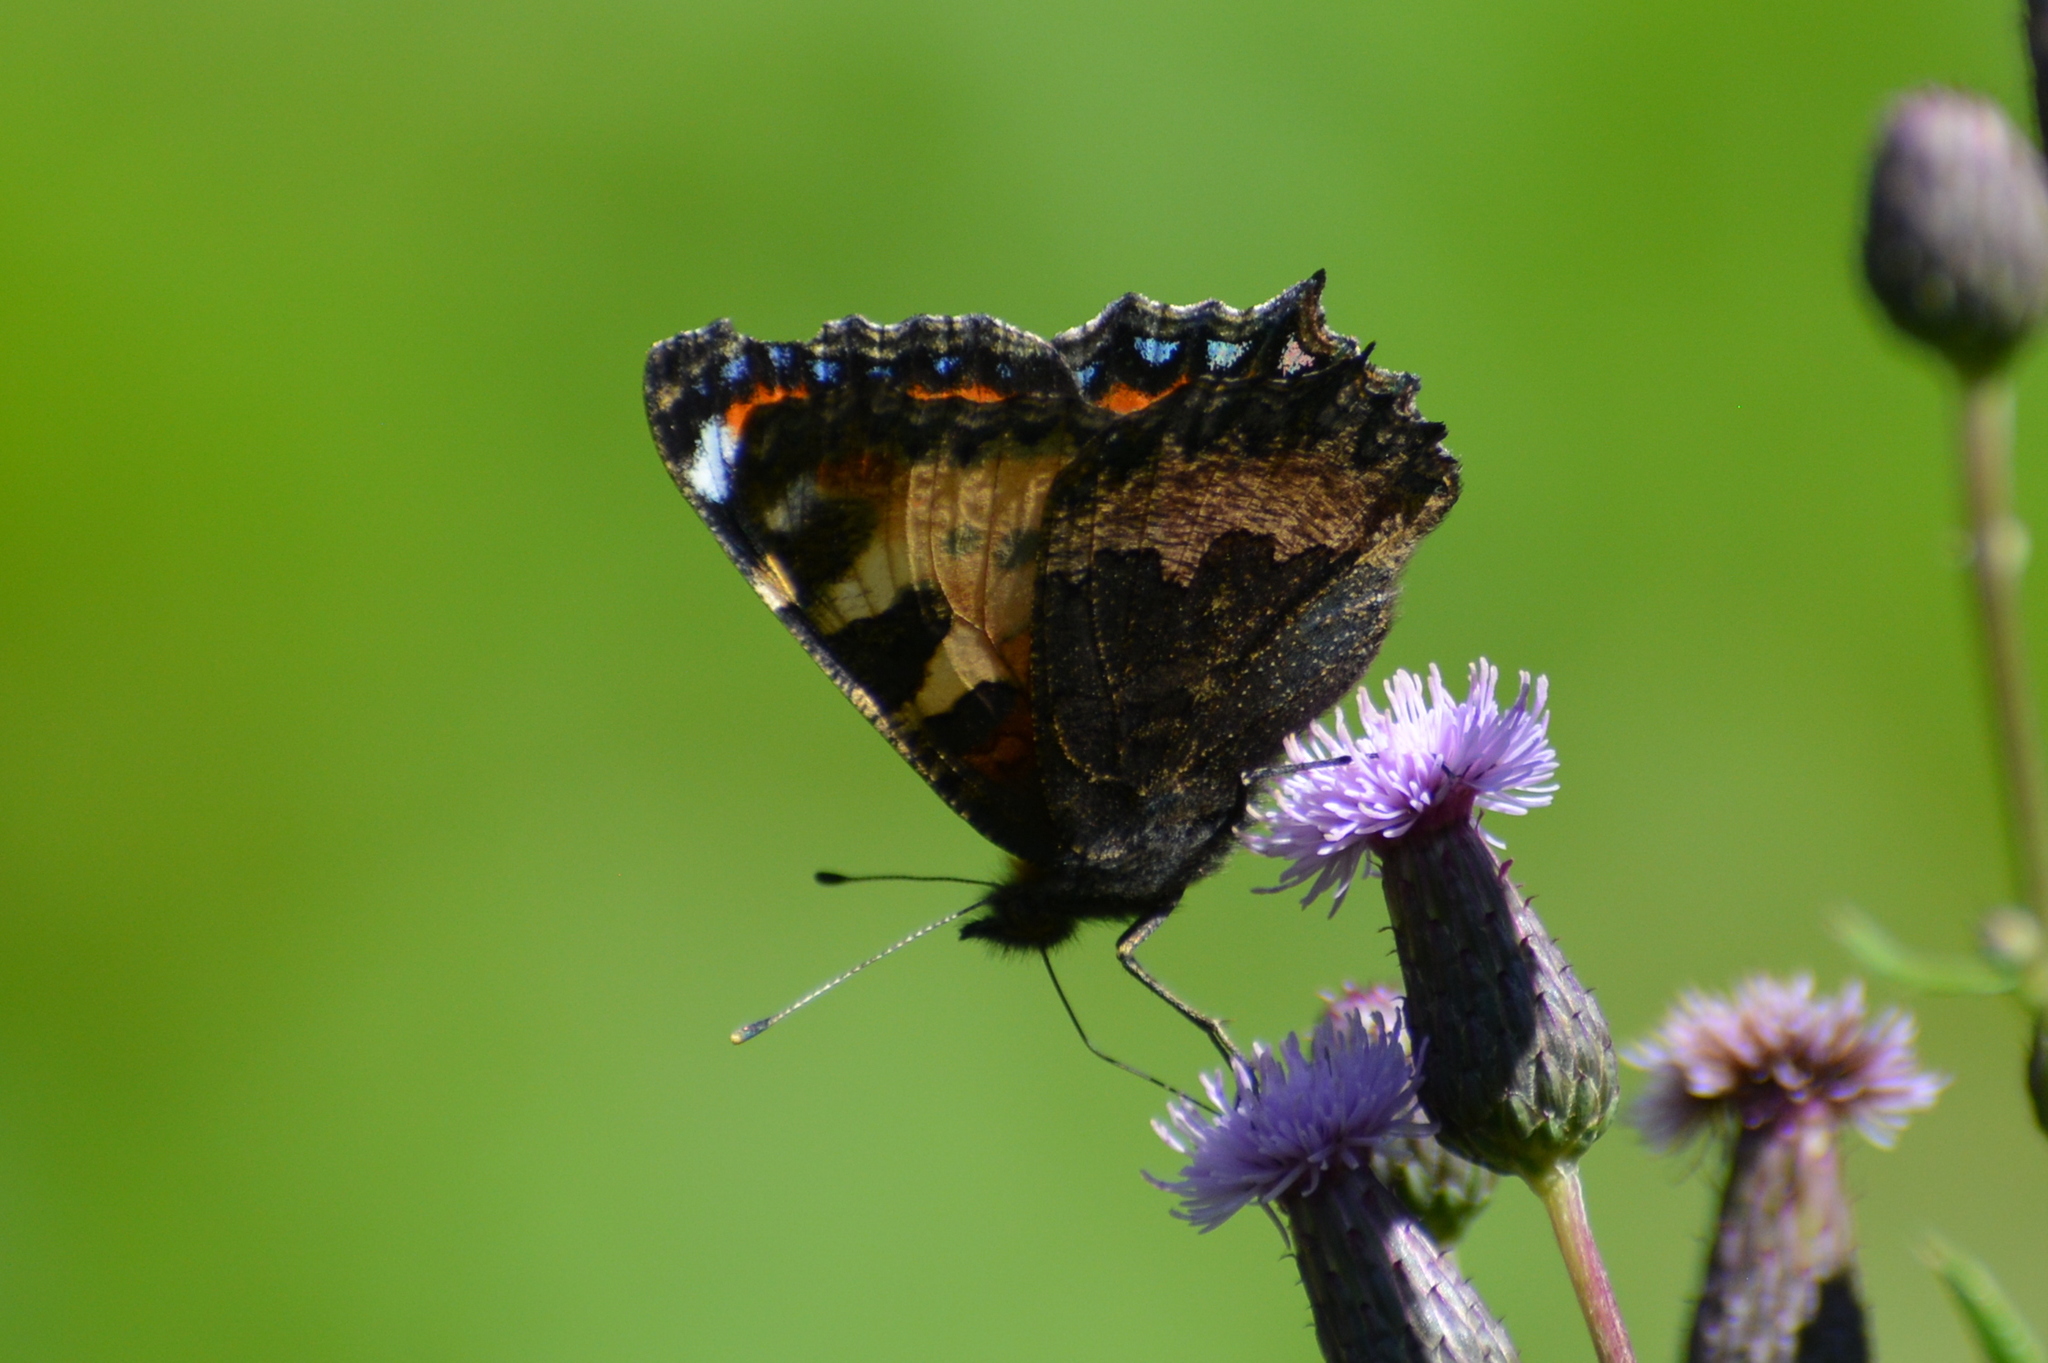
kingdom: Animalia
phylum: Arthropoda
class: Insecta
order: Lepidoptera
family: Nymphalidae
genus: Aglais
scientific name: Aglais urticae
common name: Small tortoiseshell
